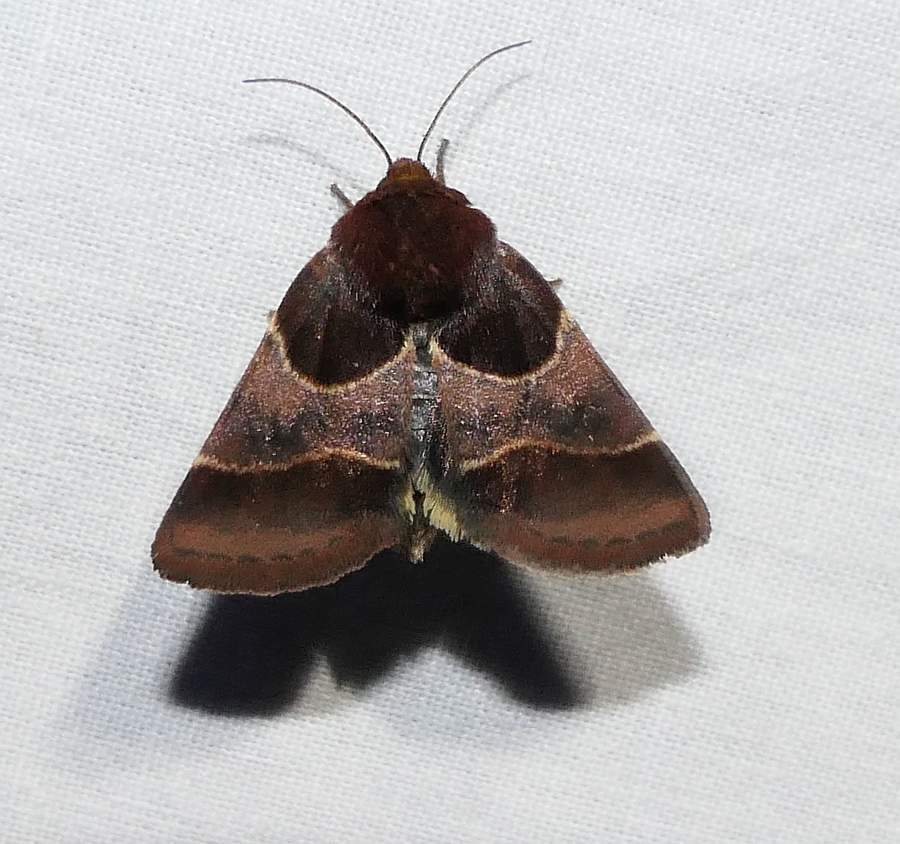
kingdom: Animalia
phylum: Arthropoda
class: Insecta
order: Lepidoptera
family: Noctuidae
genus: Schinia
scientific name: Schinia arcigera
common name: Arcigera flower moth
